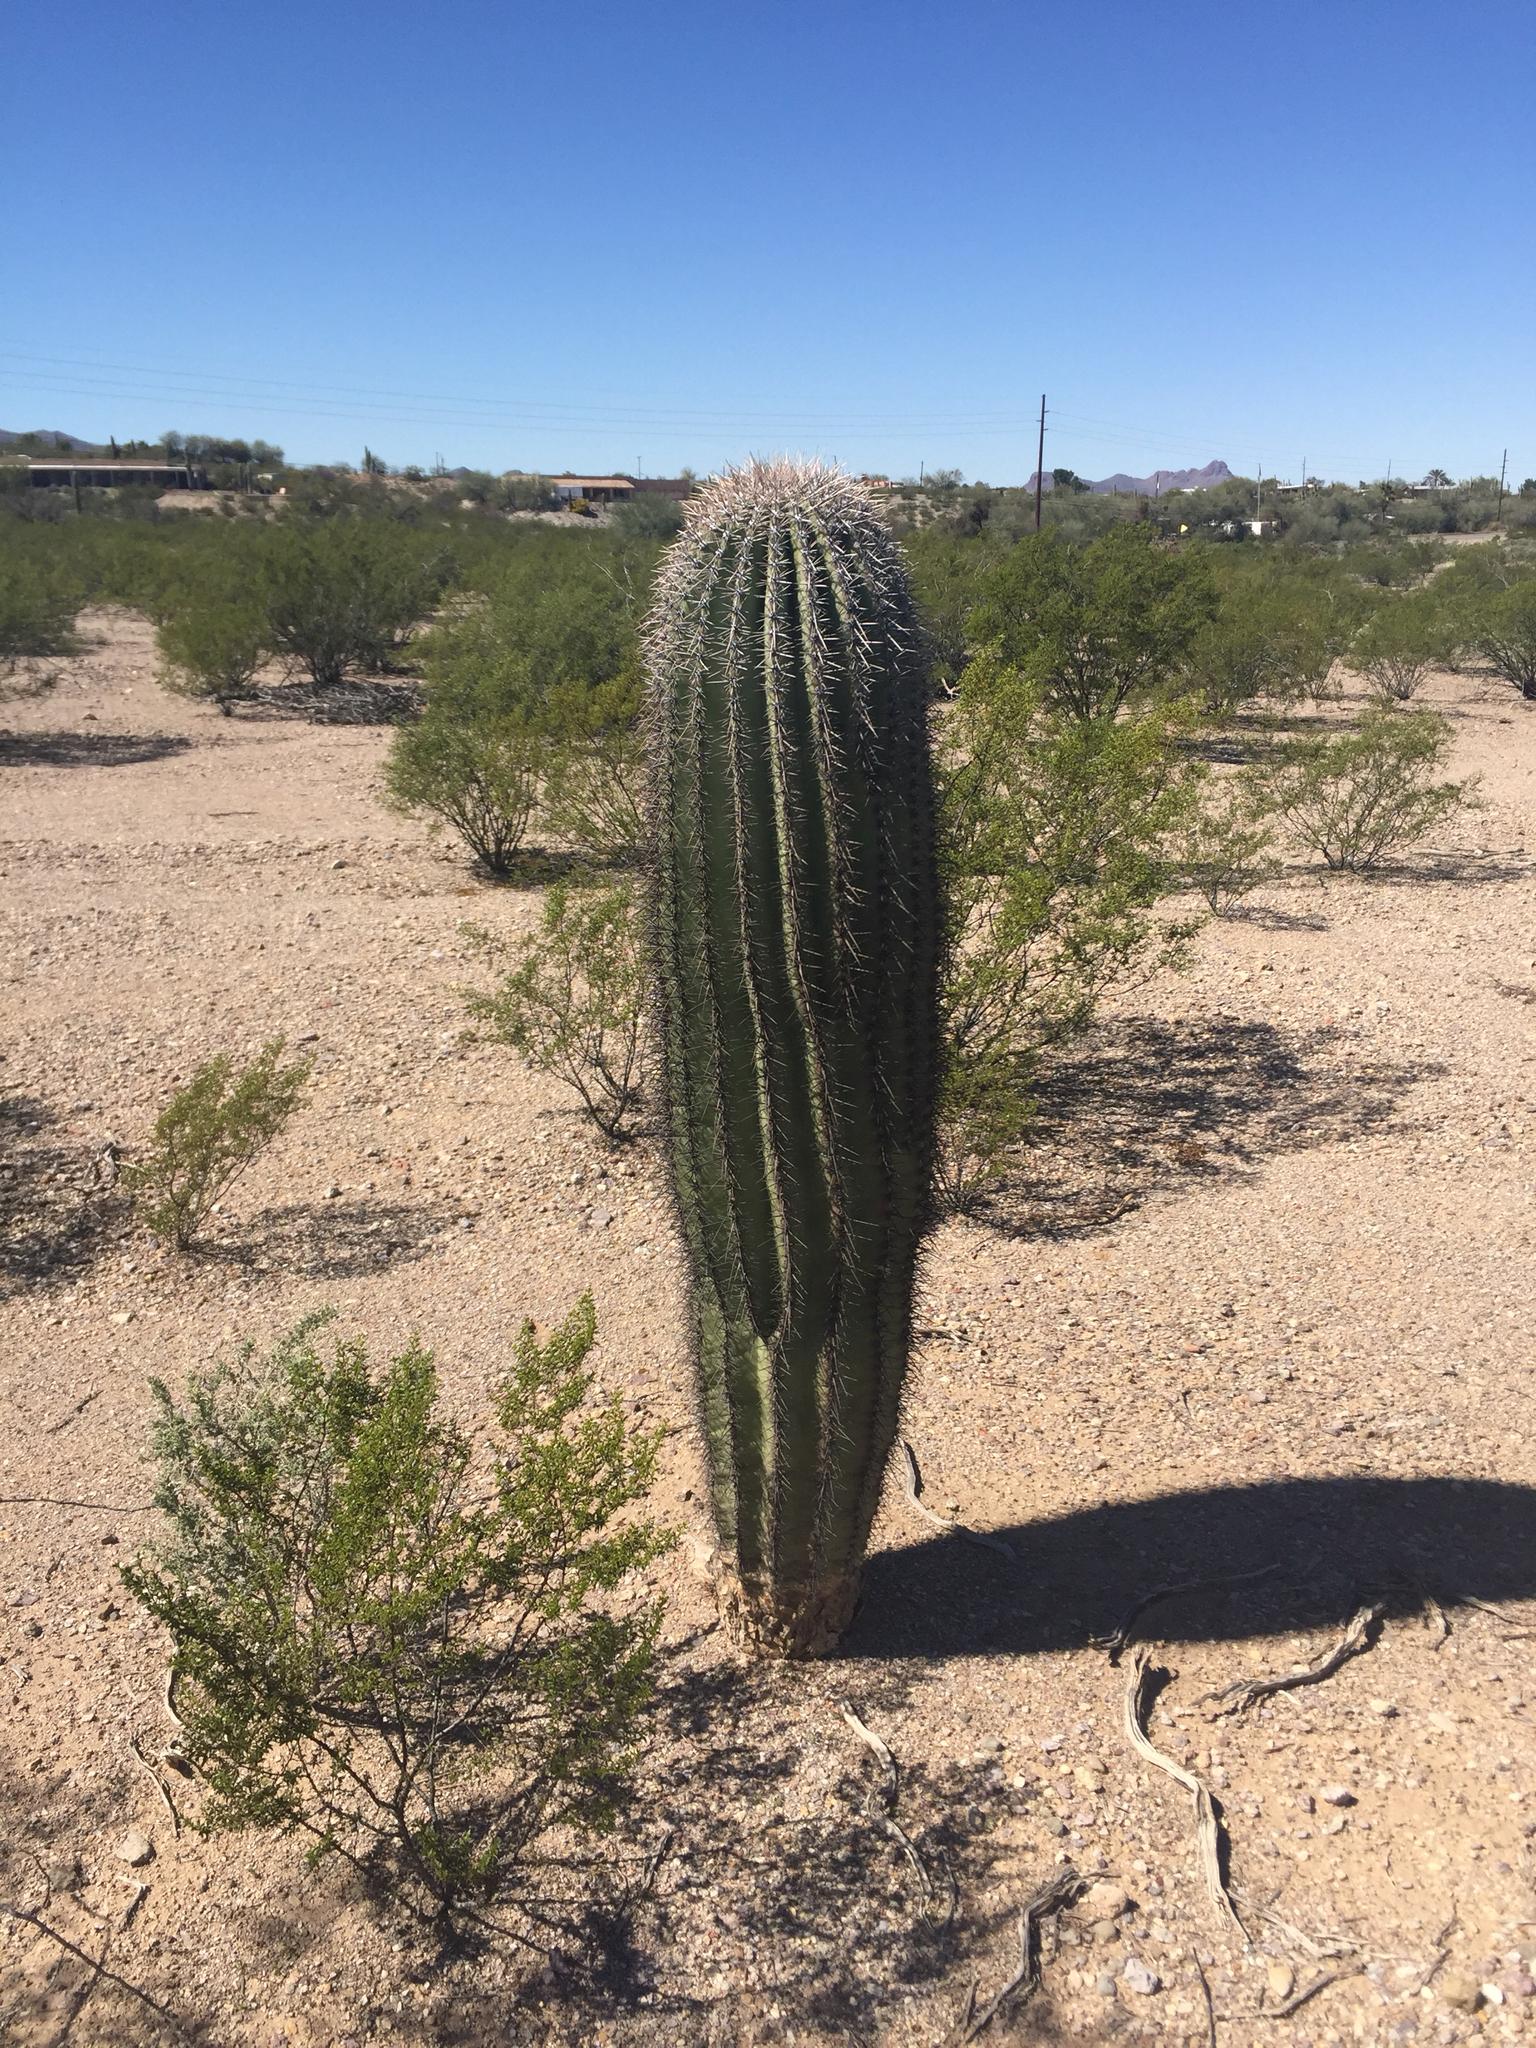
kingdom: Plantae
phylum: Tracheophyta
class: Magnoliopsida
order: Caryophyllales
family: Cactaceae
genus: Carnegiea
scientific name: Carnegiea gigantea
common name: Saguaro
